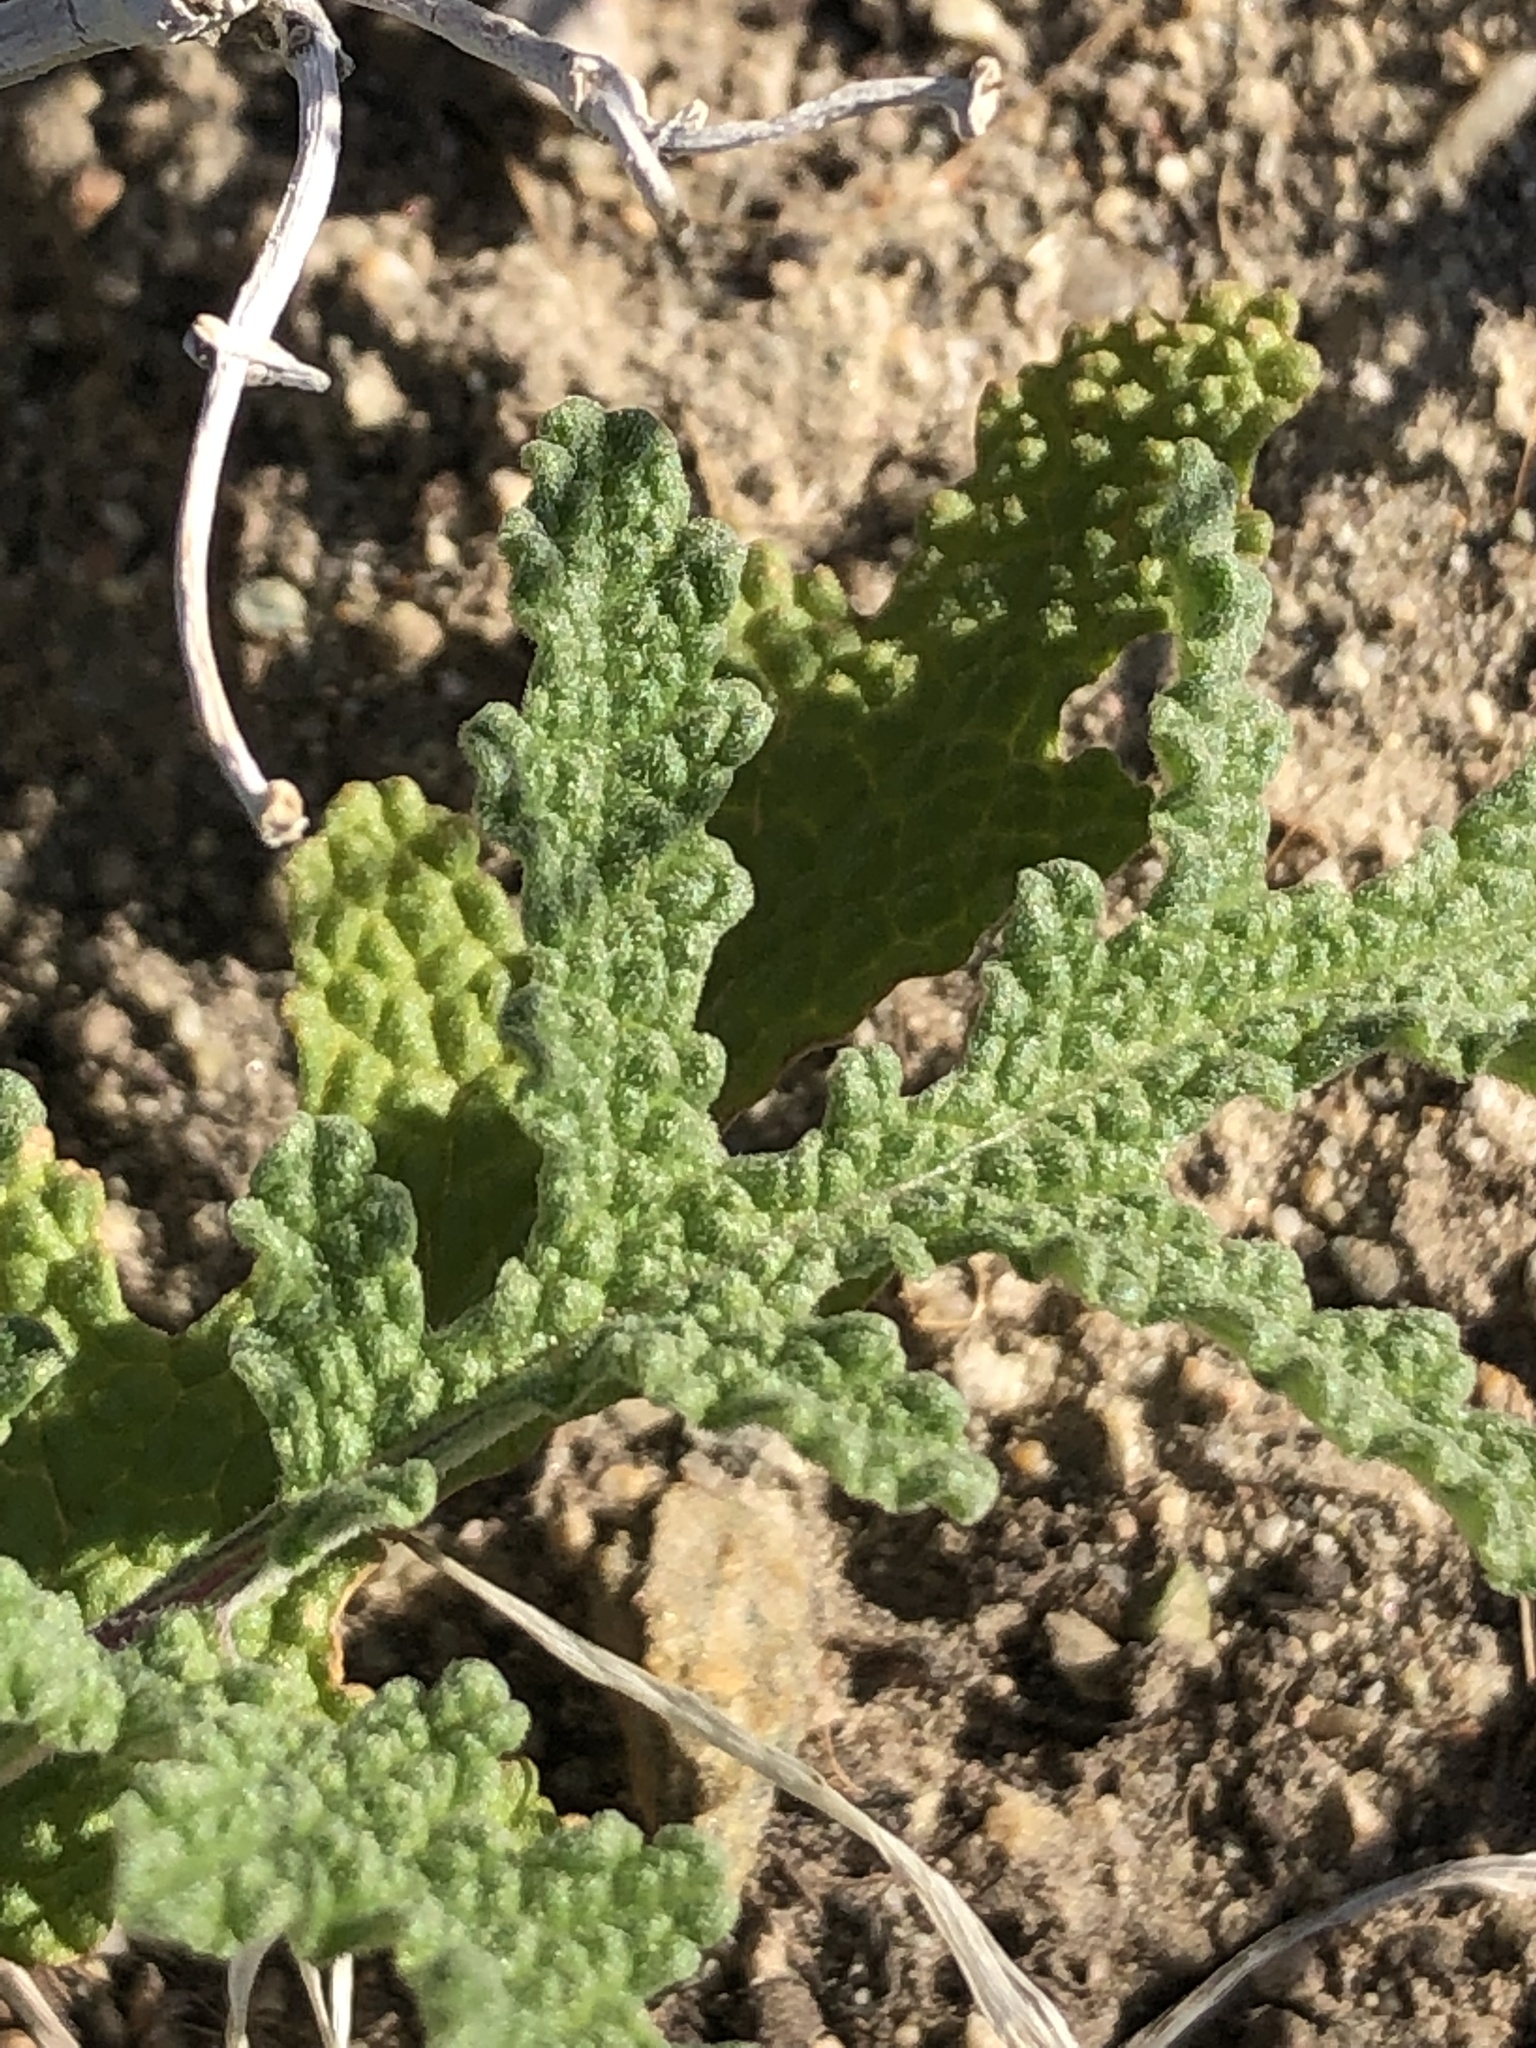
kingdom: Plantae
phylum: Tracheophyta
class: Magnoliopsida
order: Lamiales
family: Lamiaceae
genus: Salvia
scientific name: Salvia columbariae
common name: Chia
